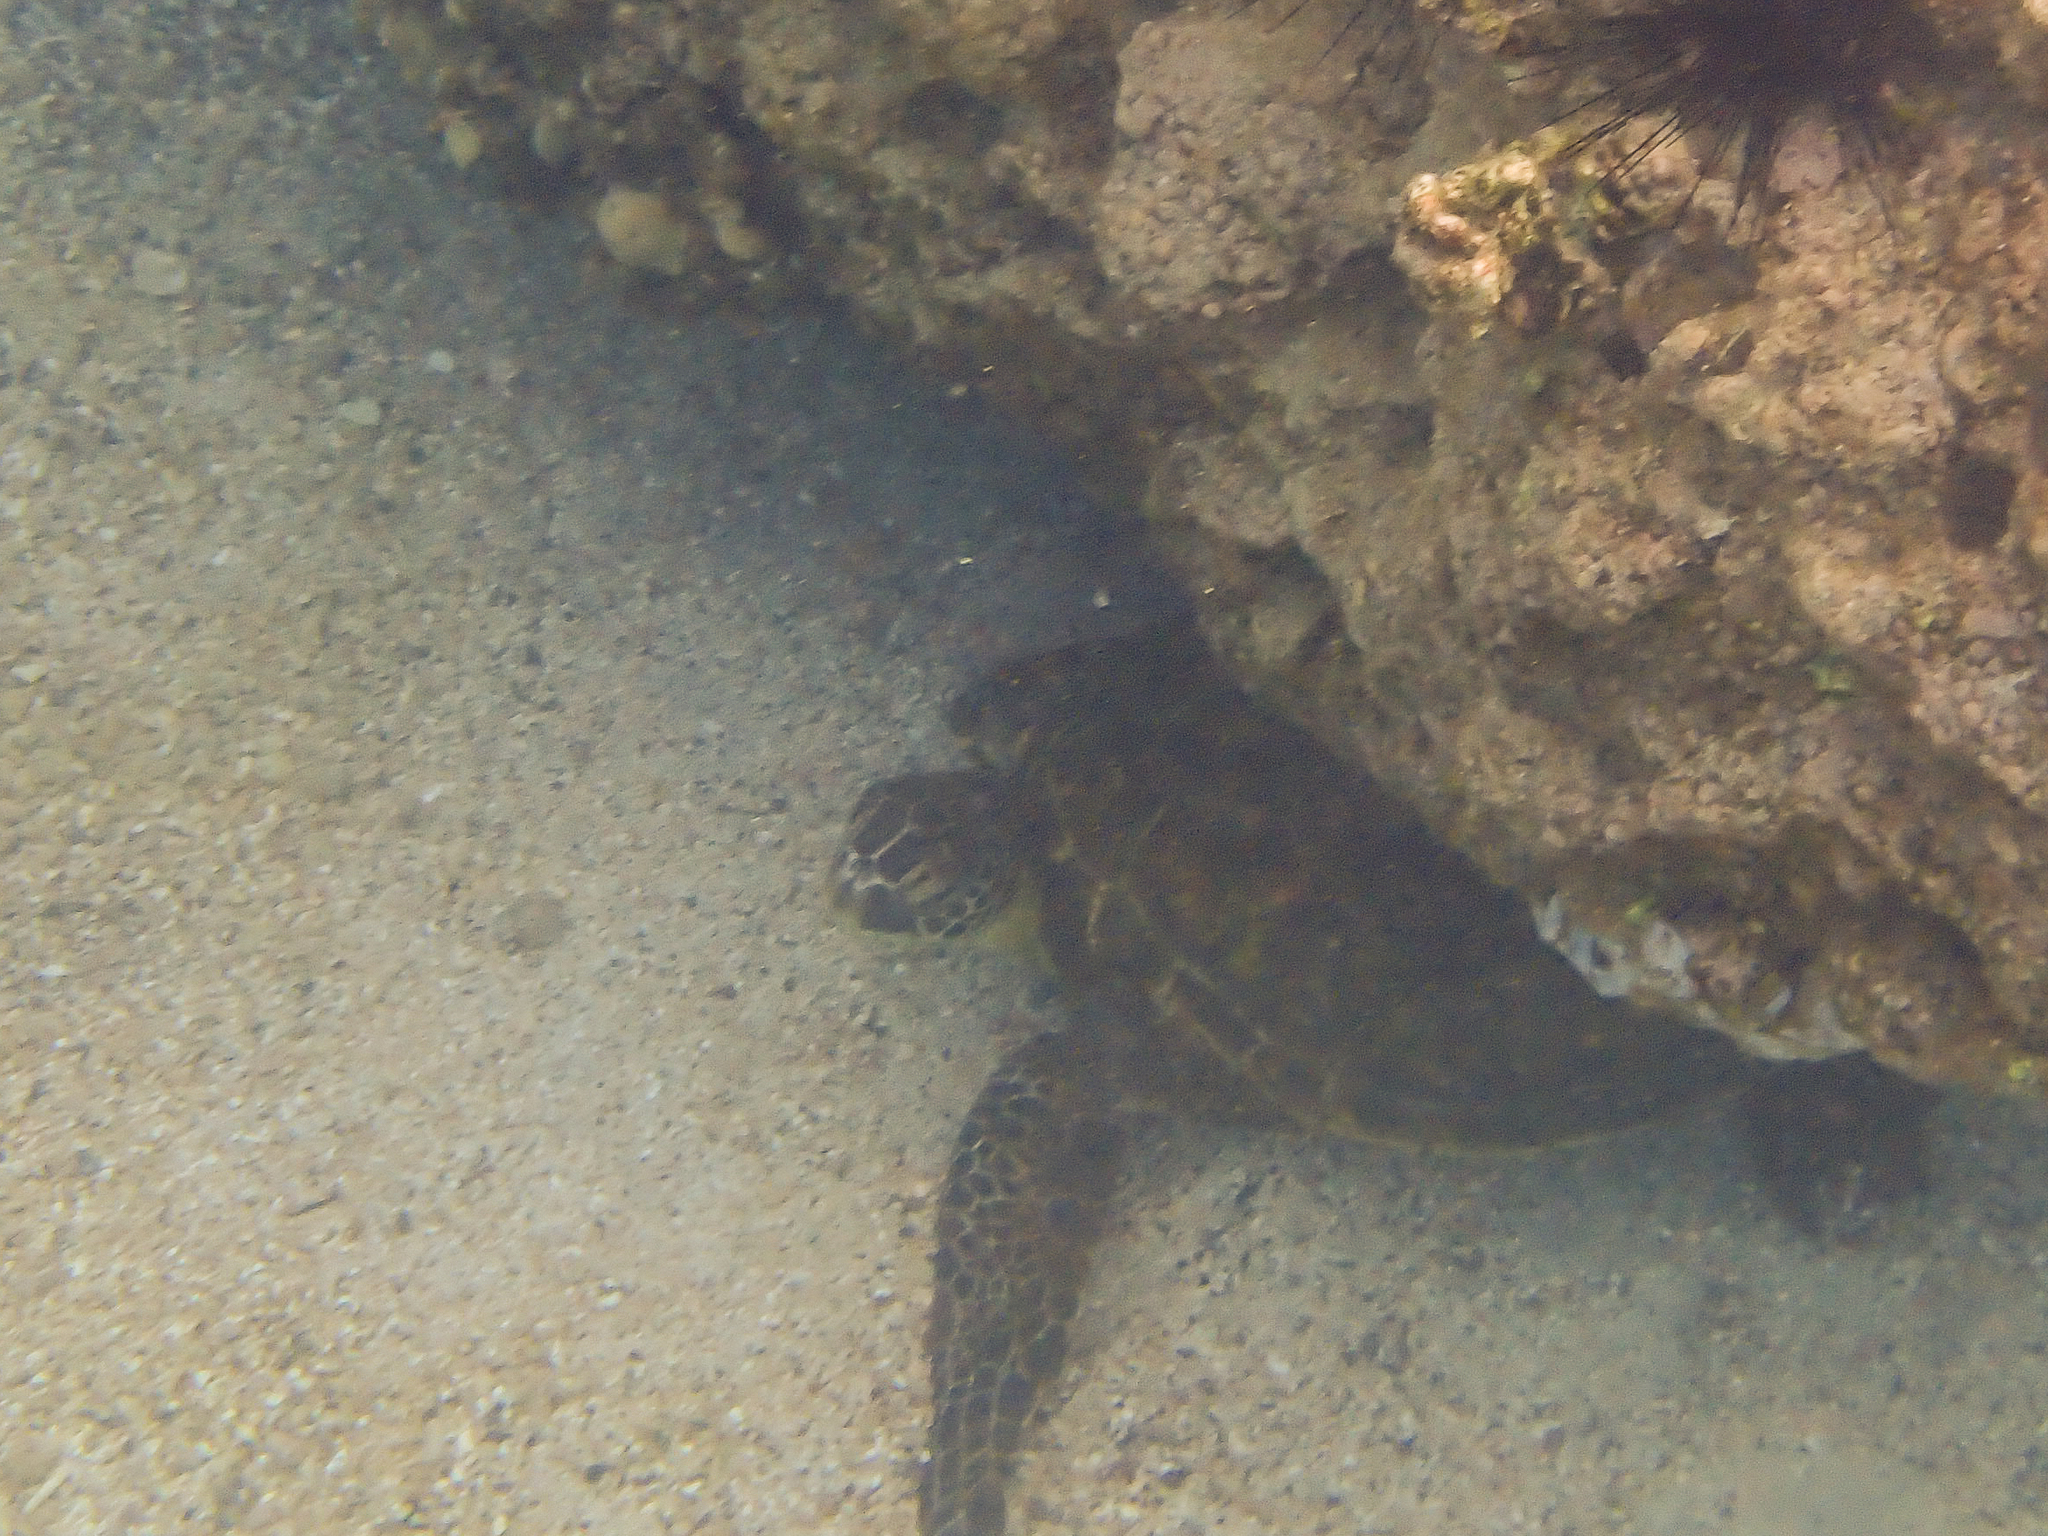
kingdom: Animalia
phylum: Chordata
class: Testudines
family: Cheloniidae
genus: Chelonia
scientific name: Chelonia mydas
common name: Green turtle
